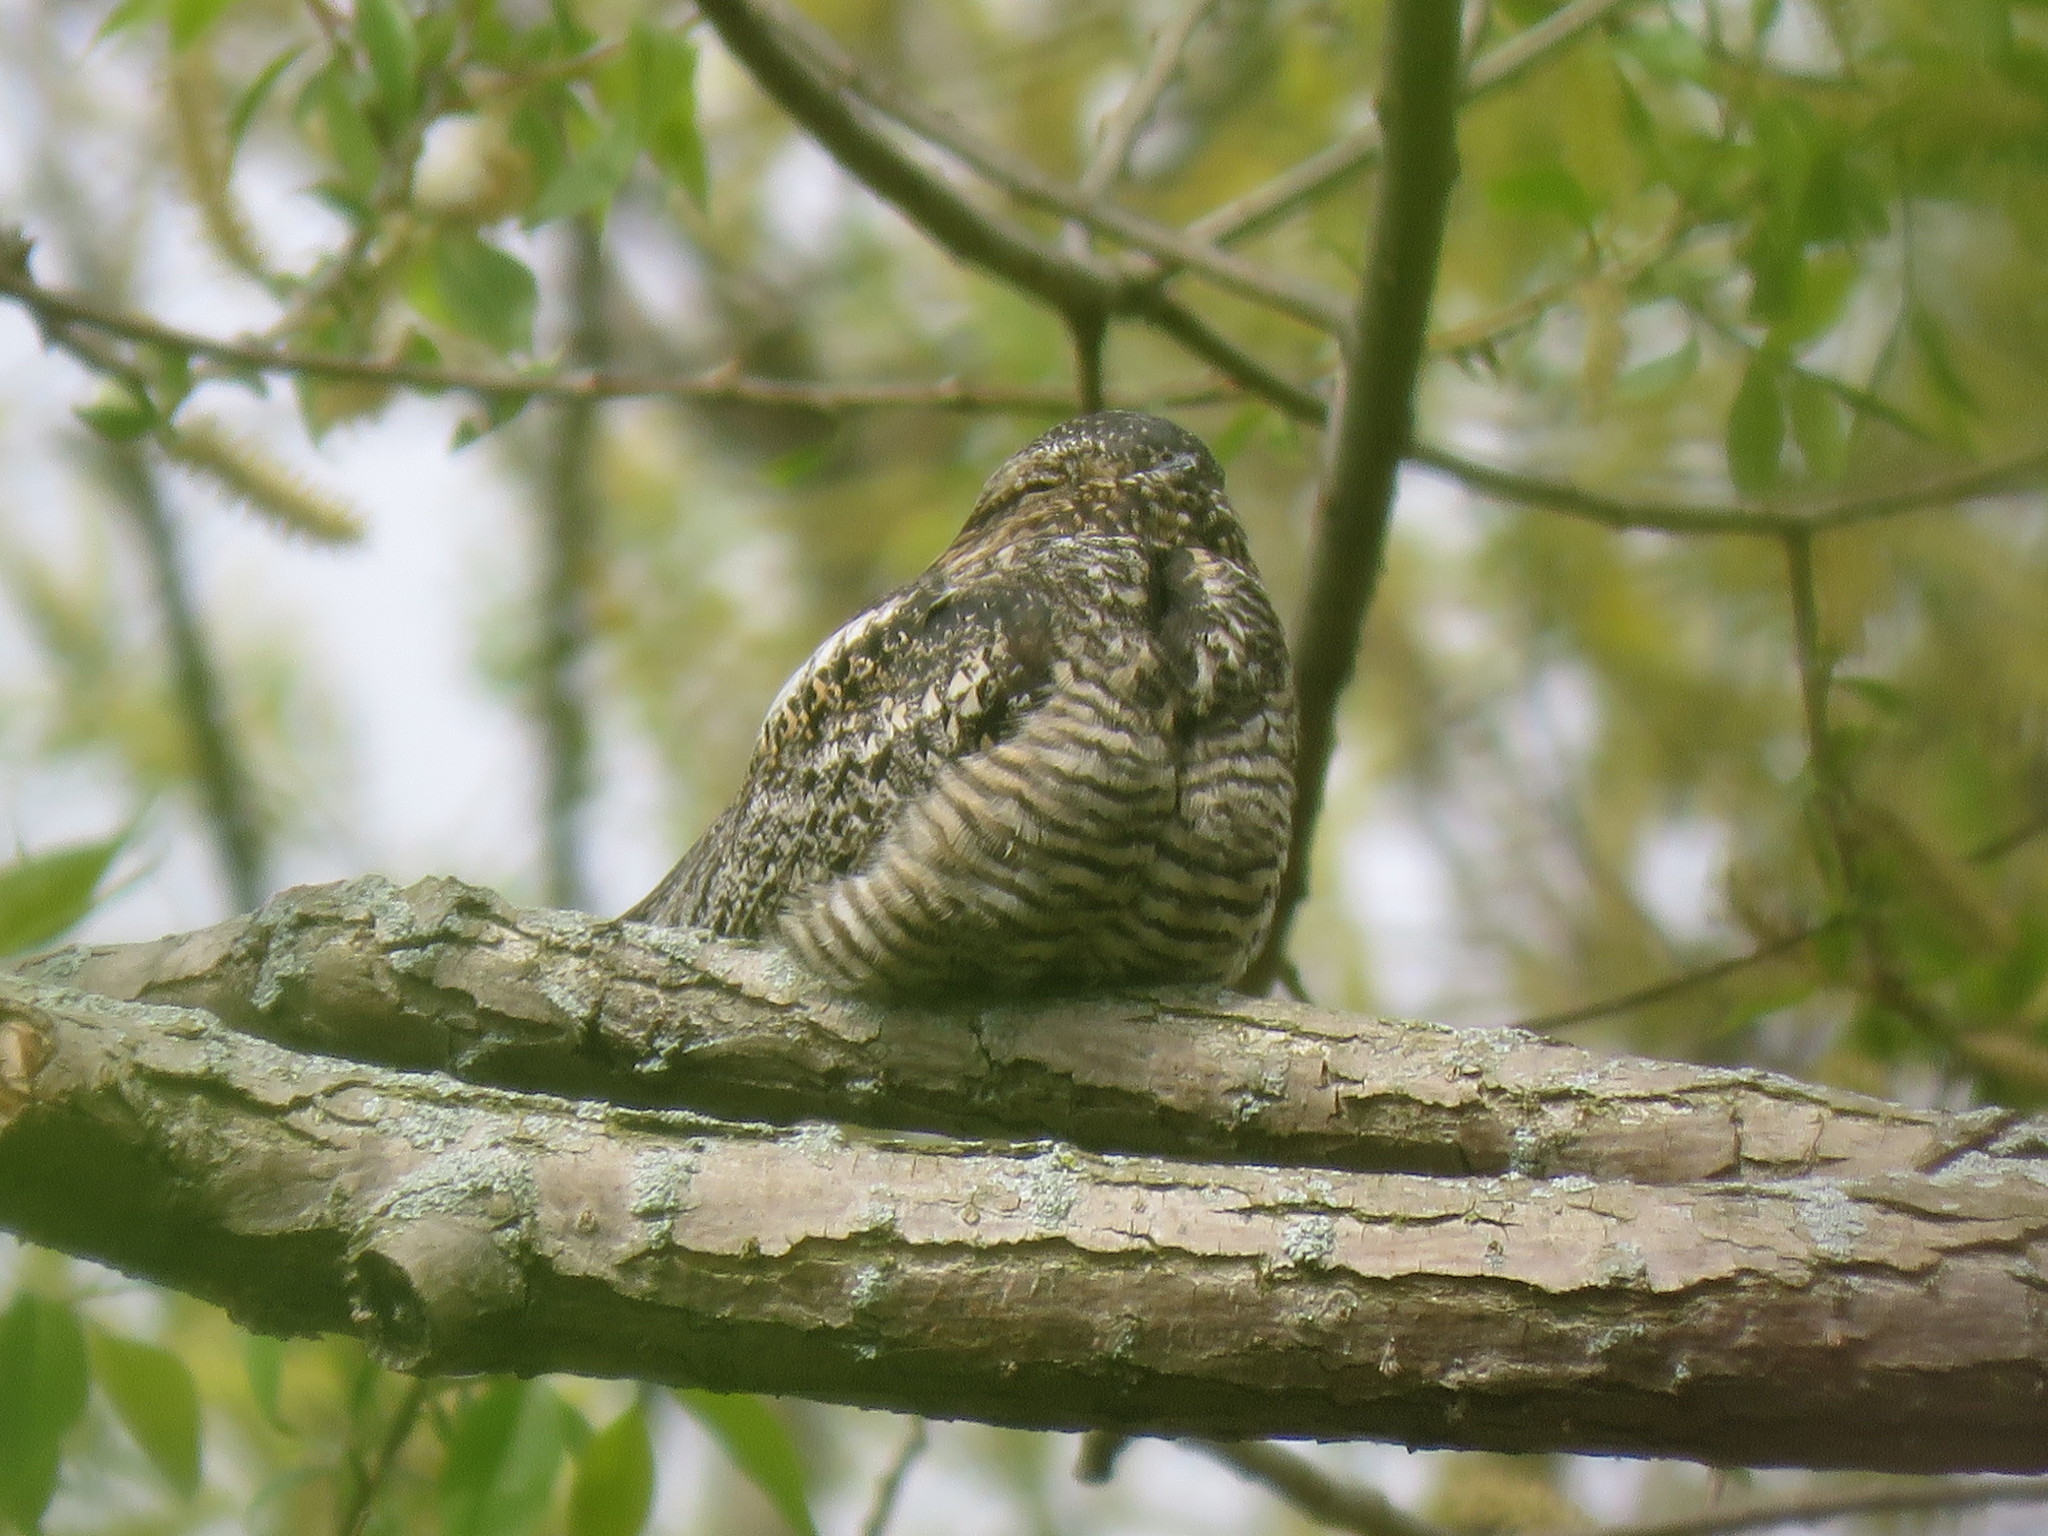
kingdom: Animalia
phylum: Chordata
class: Aves
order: Caprimulgiformes
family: Caprimulgidae
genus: Chordeiles
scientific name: Chordeiles minor
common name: Common nighthawk
